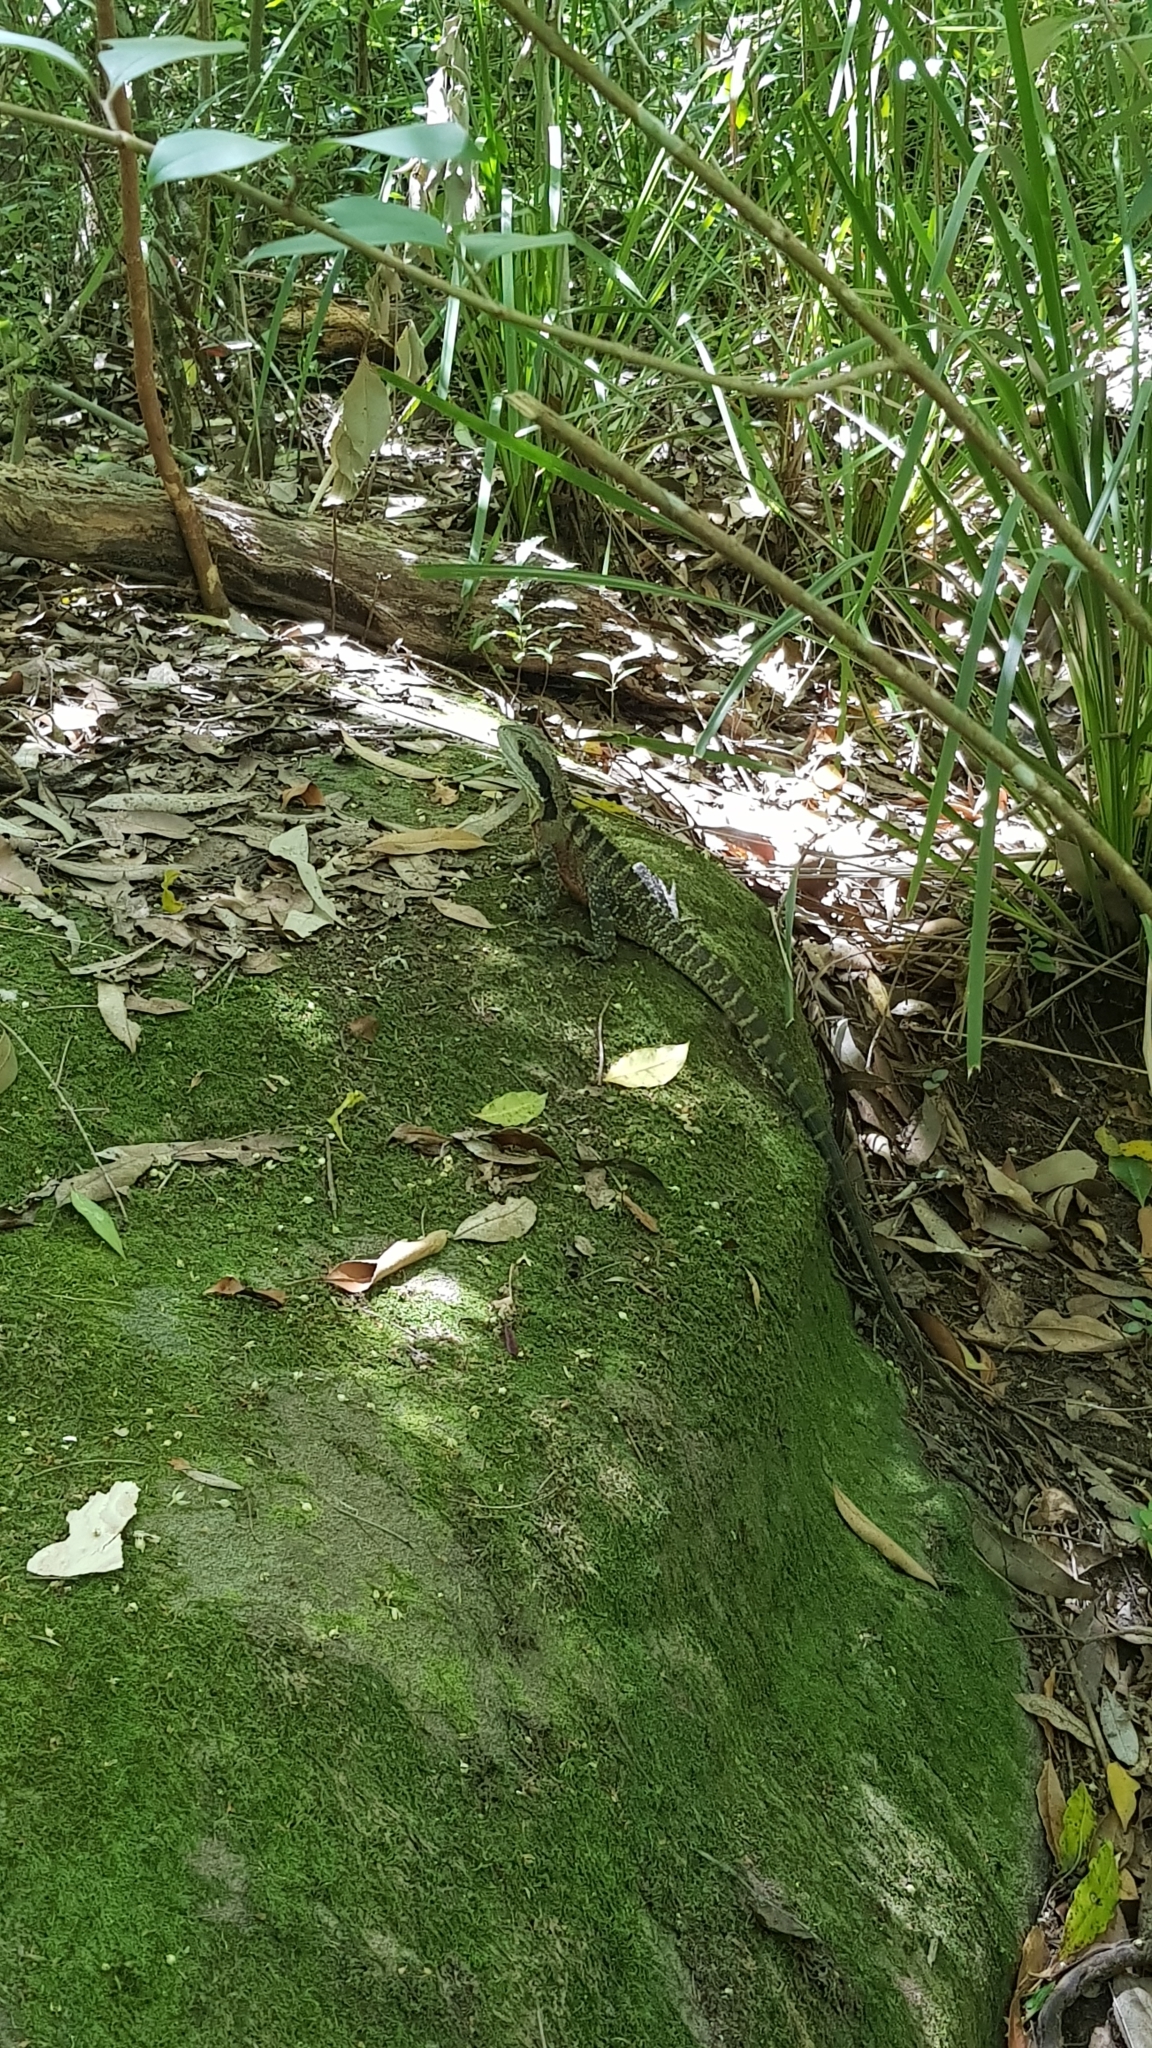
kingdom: Animalia
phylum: Chordata
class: Squamata
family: Agamidae
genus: Intellagama
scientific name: Intellagama lesueurii
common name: Eastern water dragon
